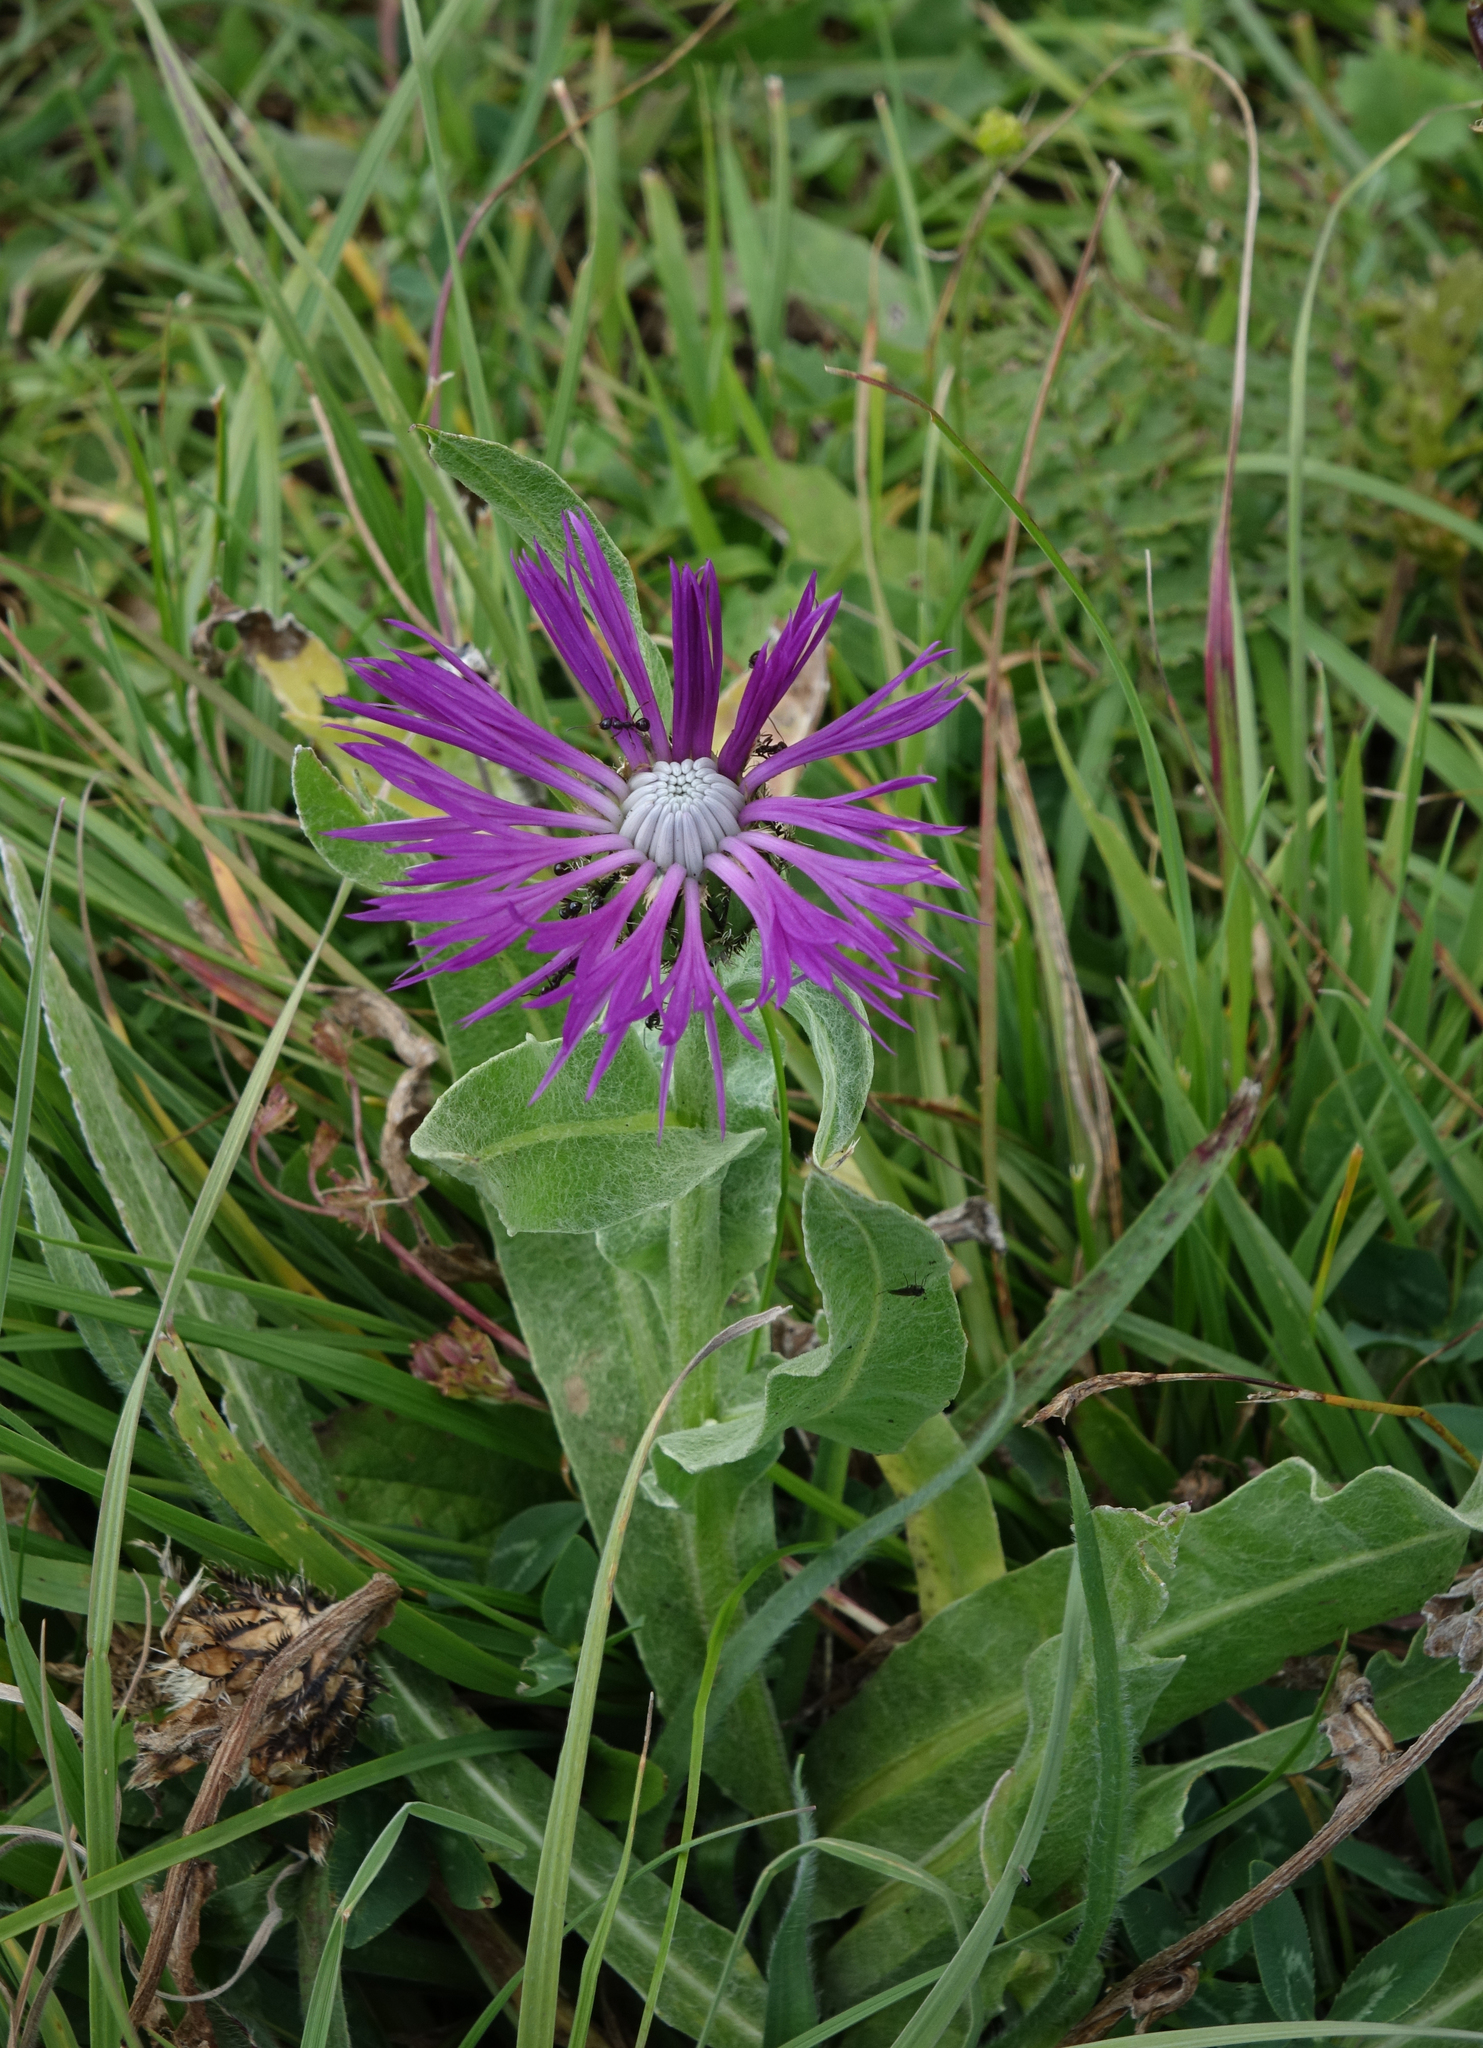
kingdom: Plantae
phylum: Tracheophyta
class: Magnoliopsida
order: Asterales
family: Asteraceae
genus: Centaurea
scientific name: Centaurea cheiranthifolia
